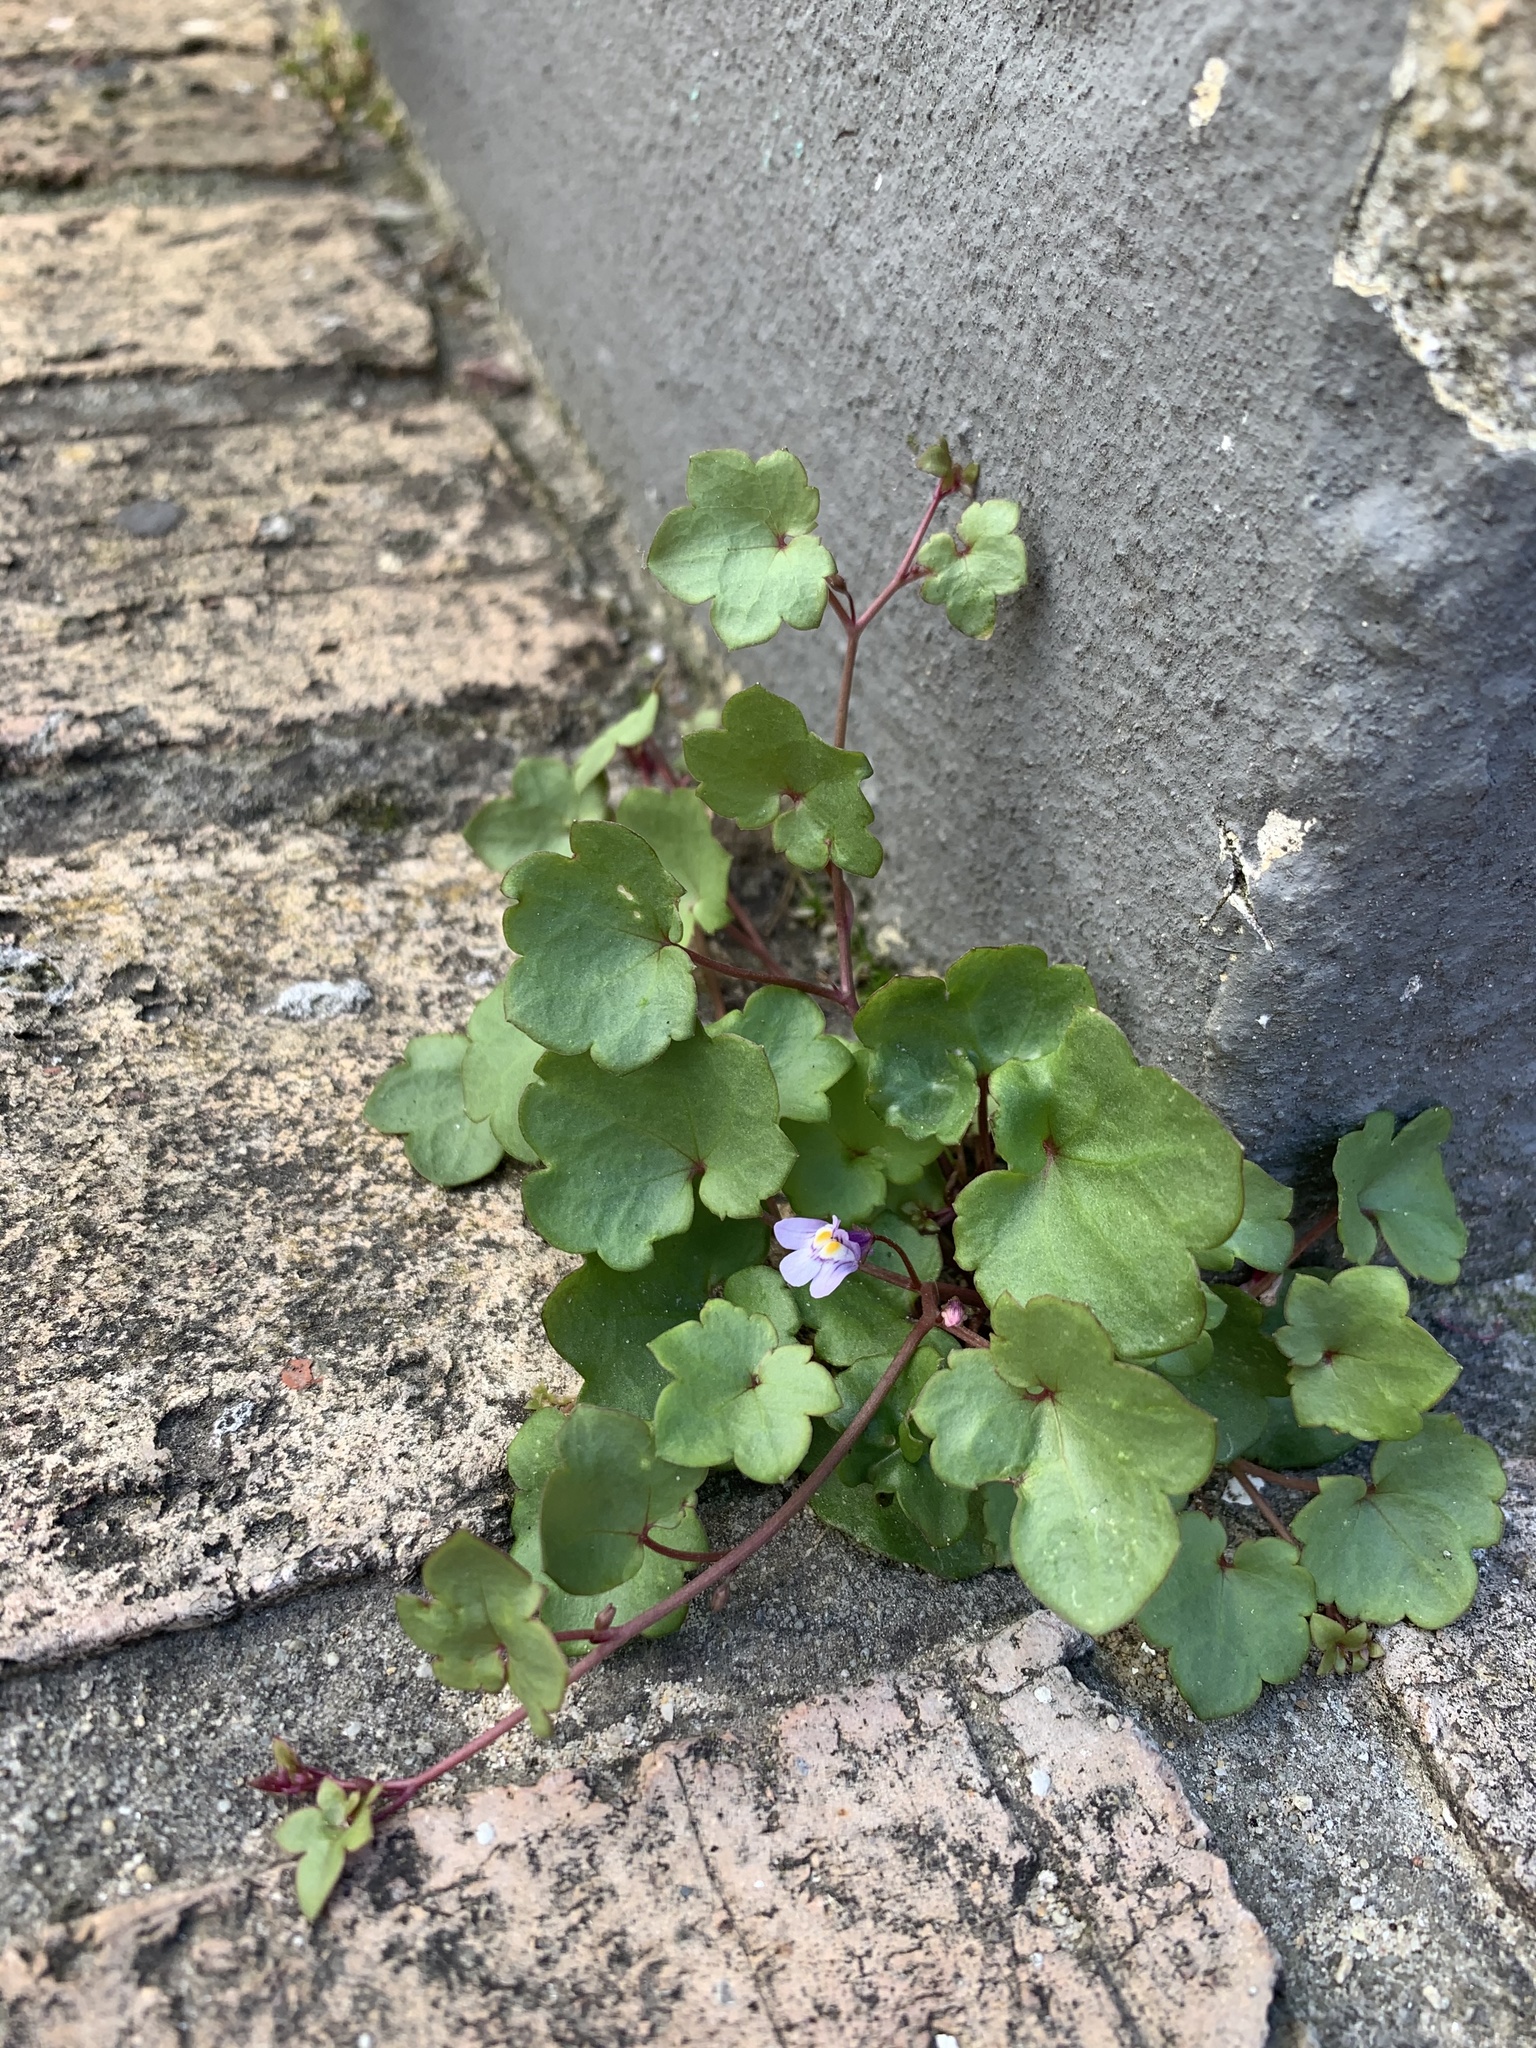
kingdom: Plantae
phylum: Tracheophyta
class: Magnoliopsida
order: Lamiales
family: Plantaginaceae
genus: Cymbalaria
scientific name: Cymbalaria muralis
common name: Ivy-leaved toadflax
